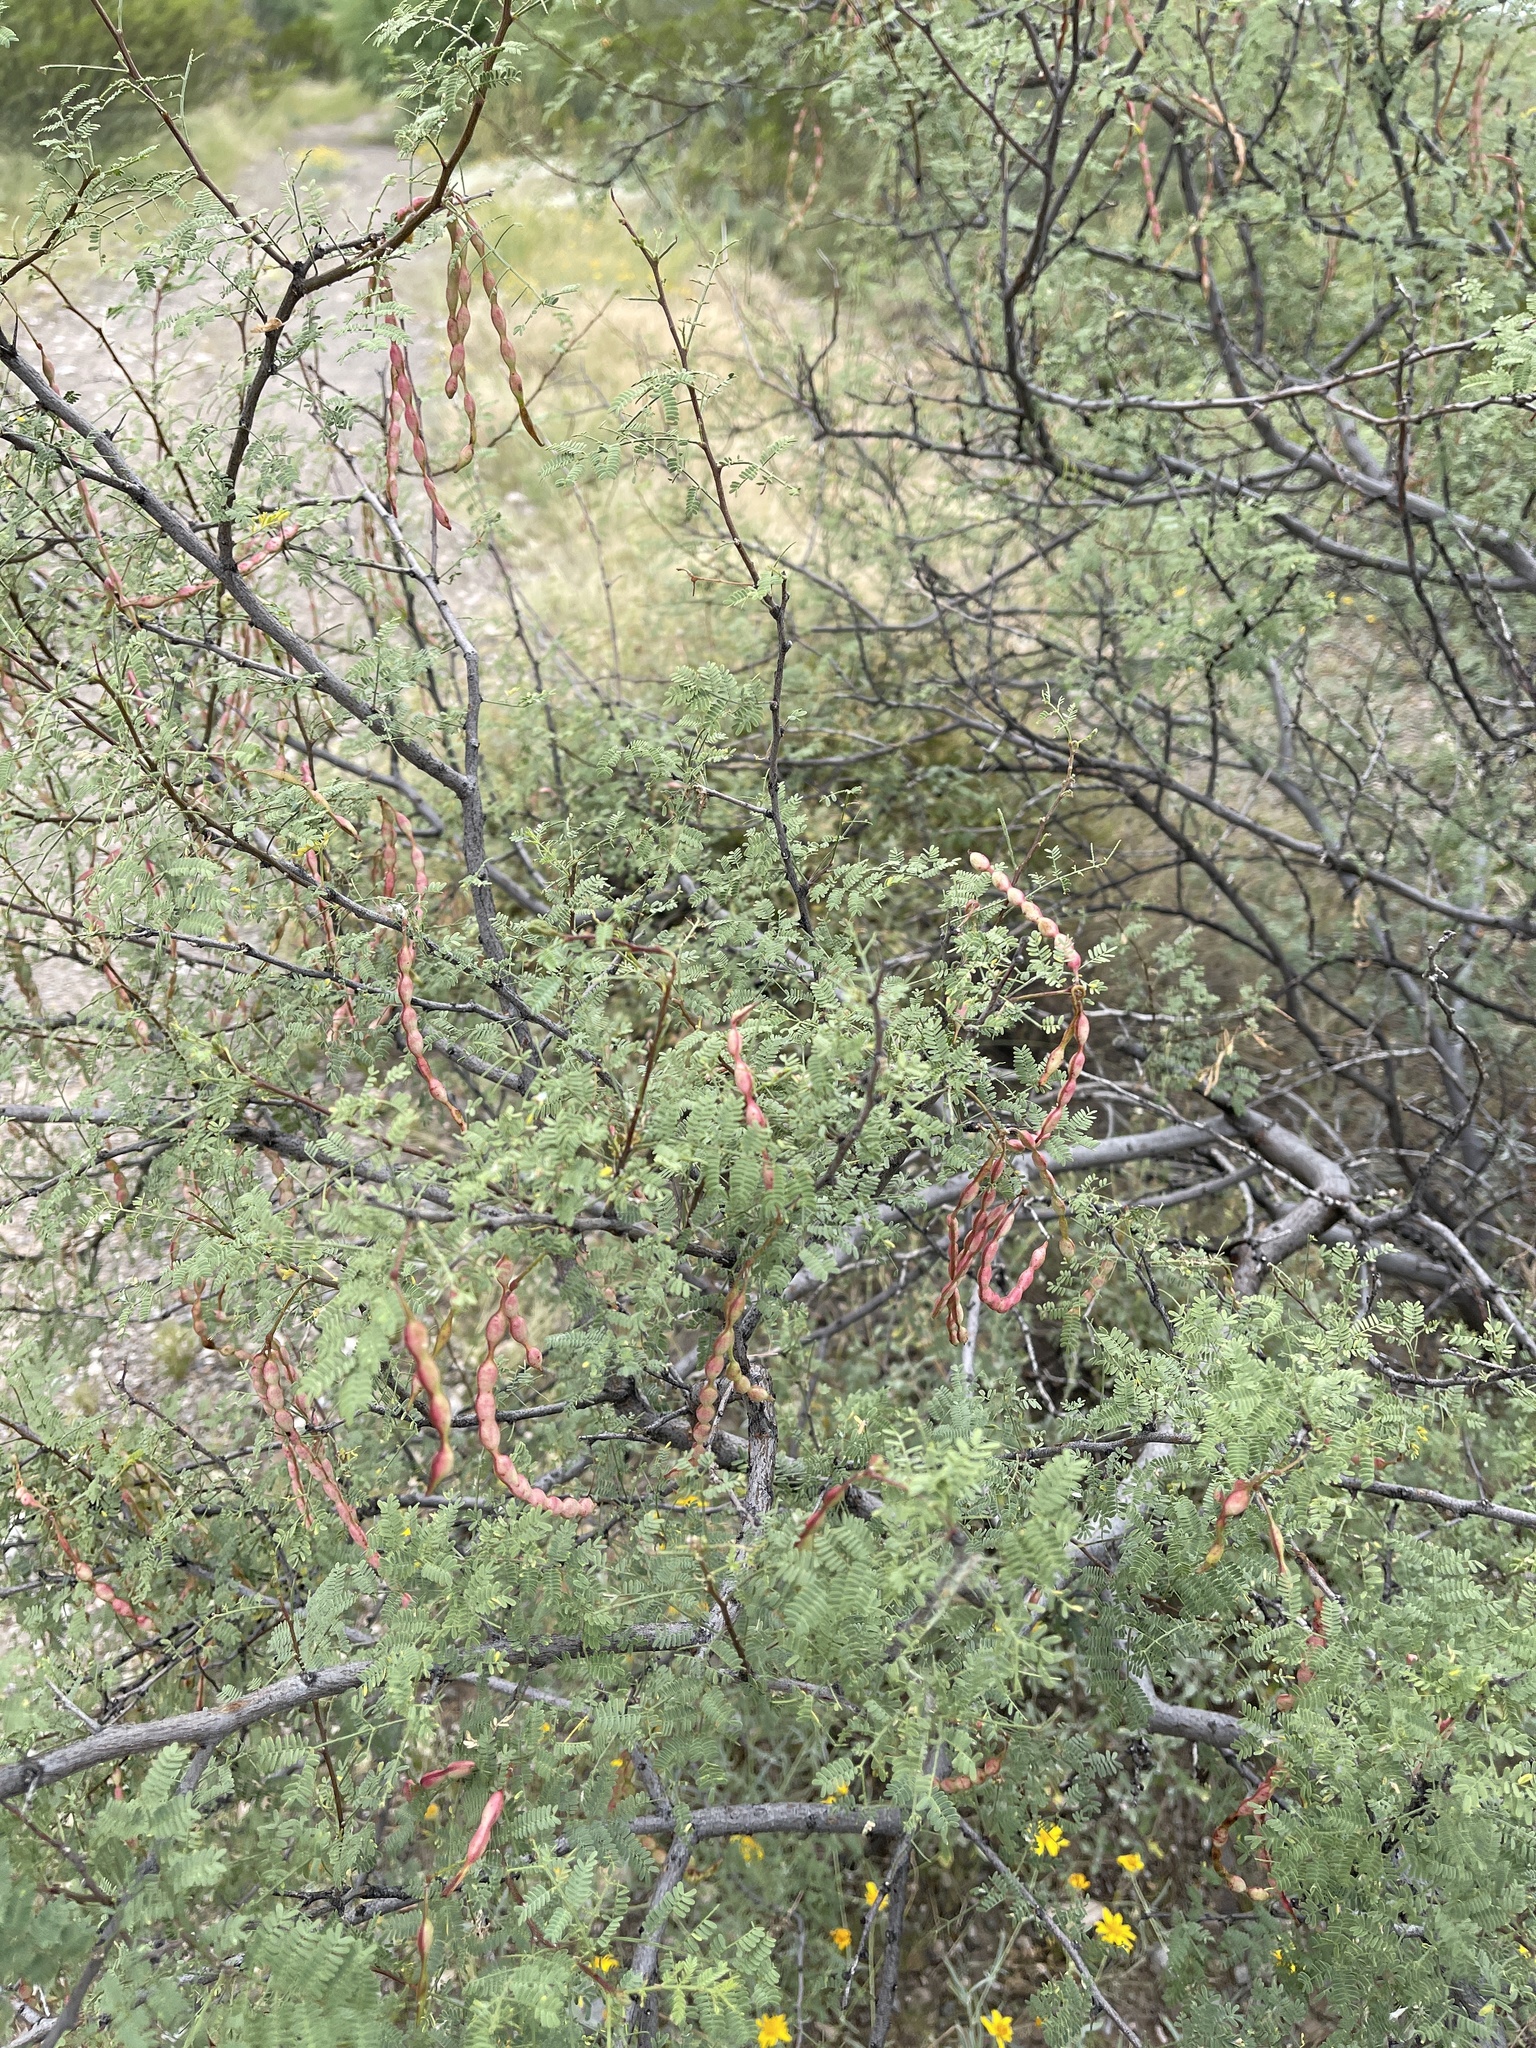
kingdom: Plantae
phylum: Tracheophyta
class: Magnoliopsida
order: Fabales
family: Fabaceae
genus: Vachellia
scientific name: Vachellia constricta
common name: Mescat acacia
